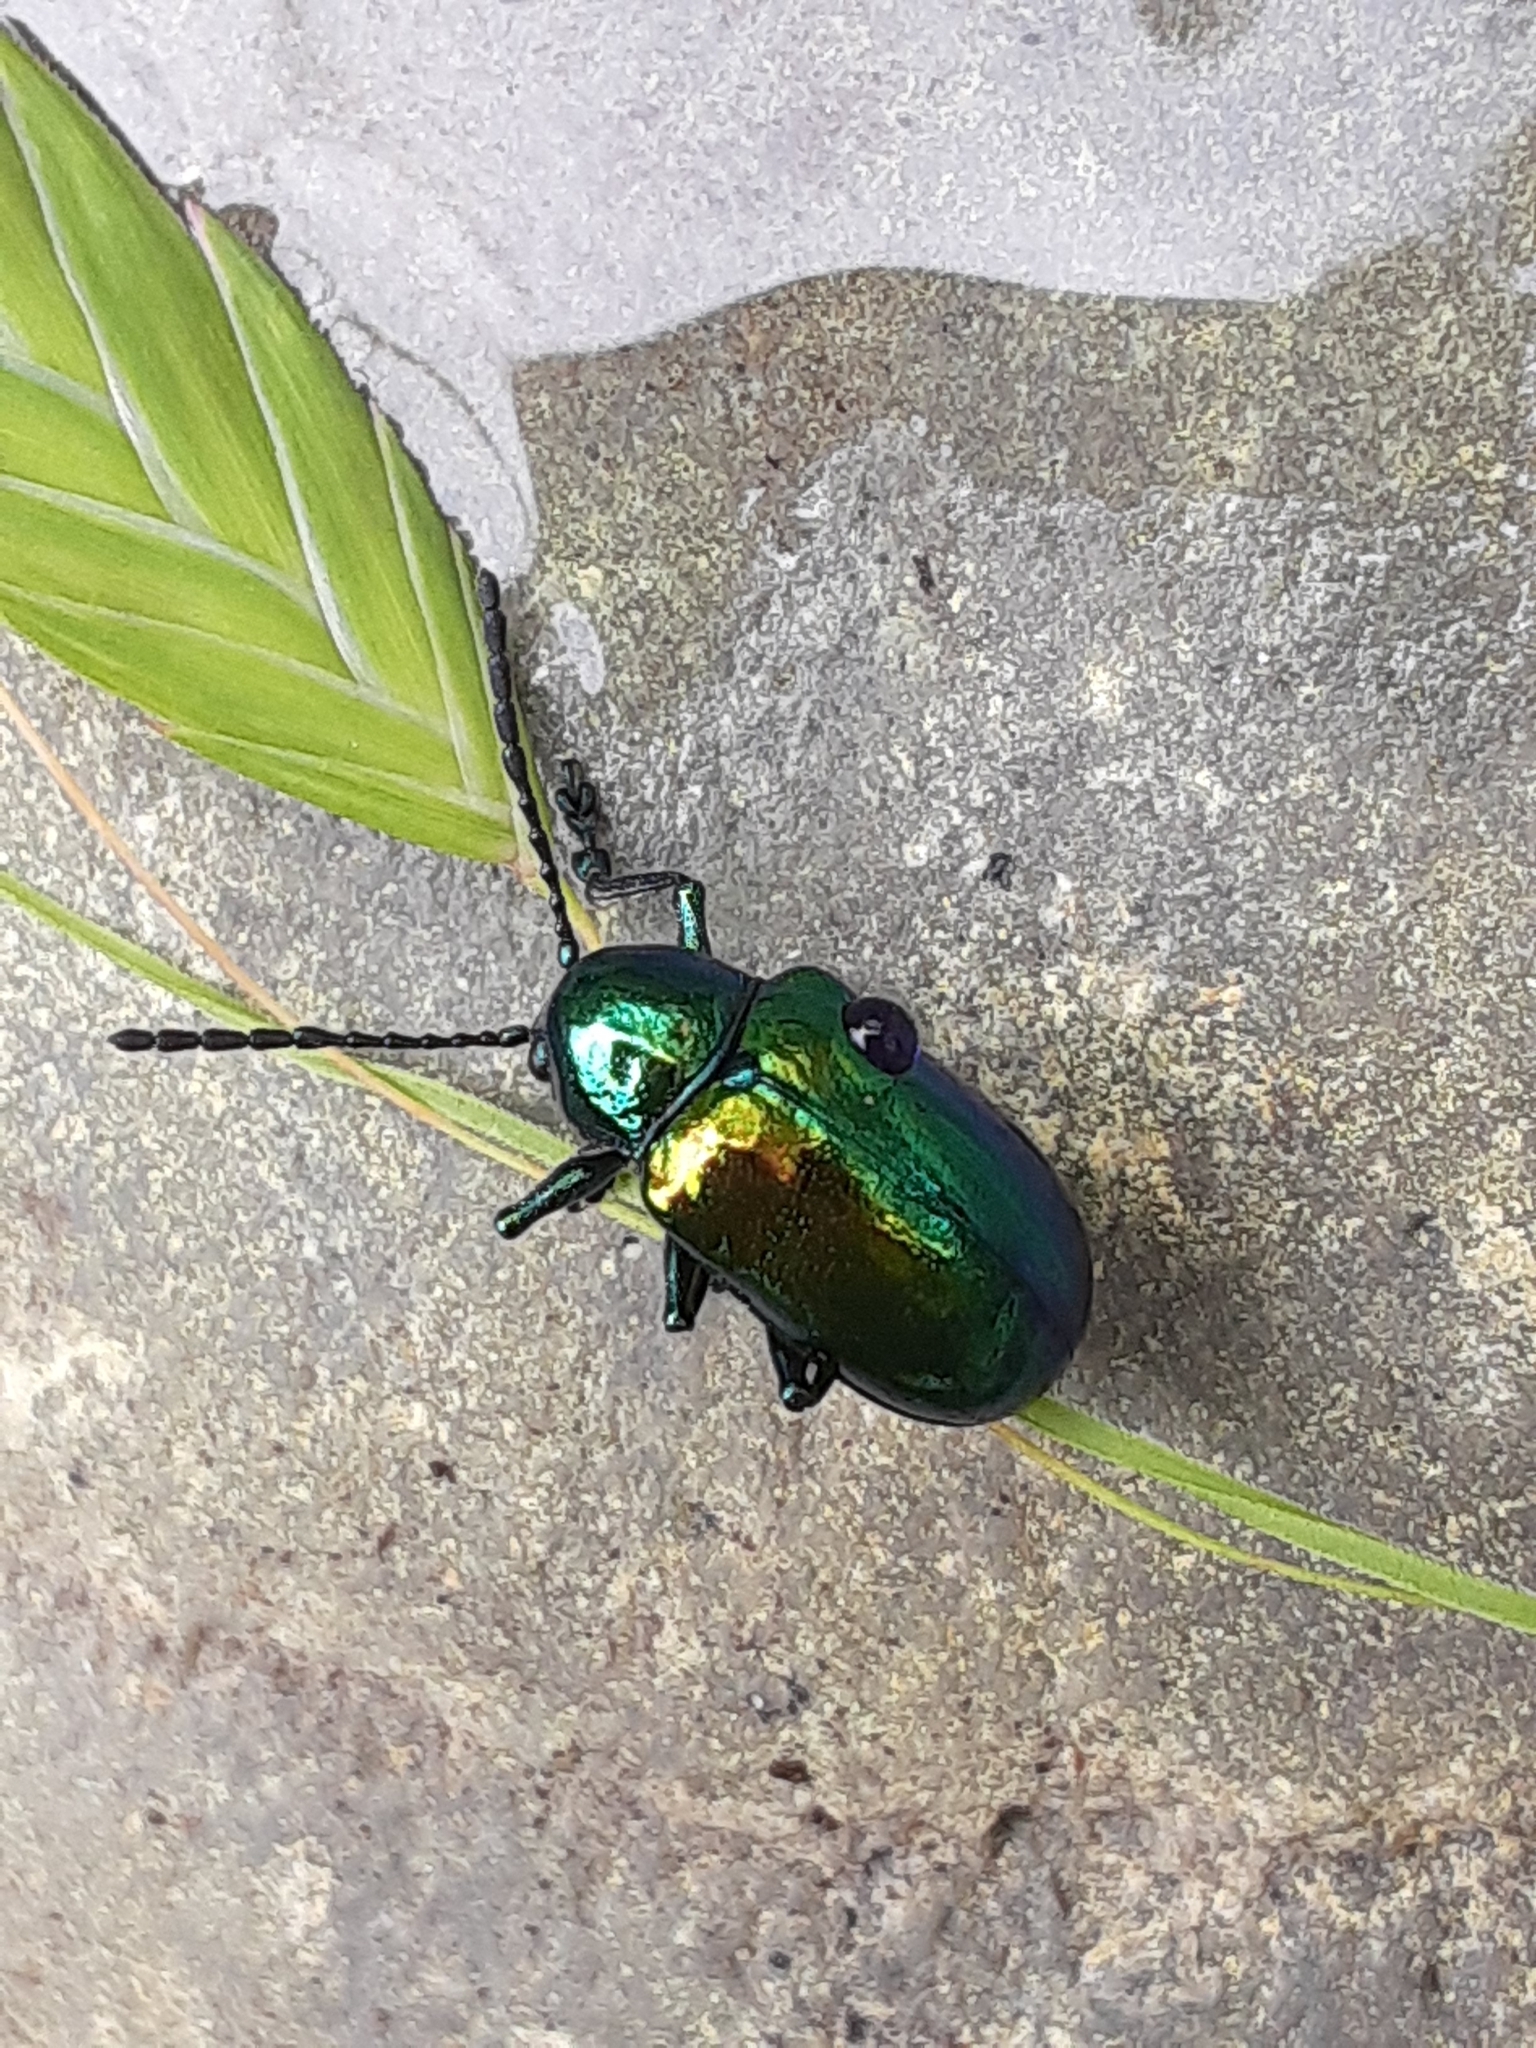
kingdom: Animalia
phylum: Arthropoda
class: Insecta
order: Coleoptera
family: Chrysomelidae
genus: Chrysochus
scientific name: Chrysochus auratus
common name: Dogbane leaf beetle
